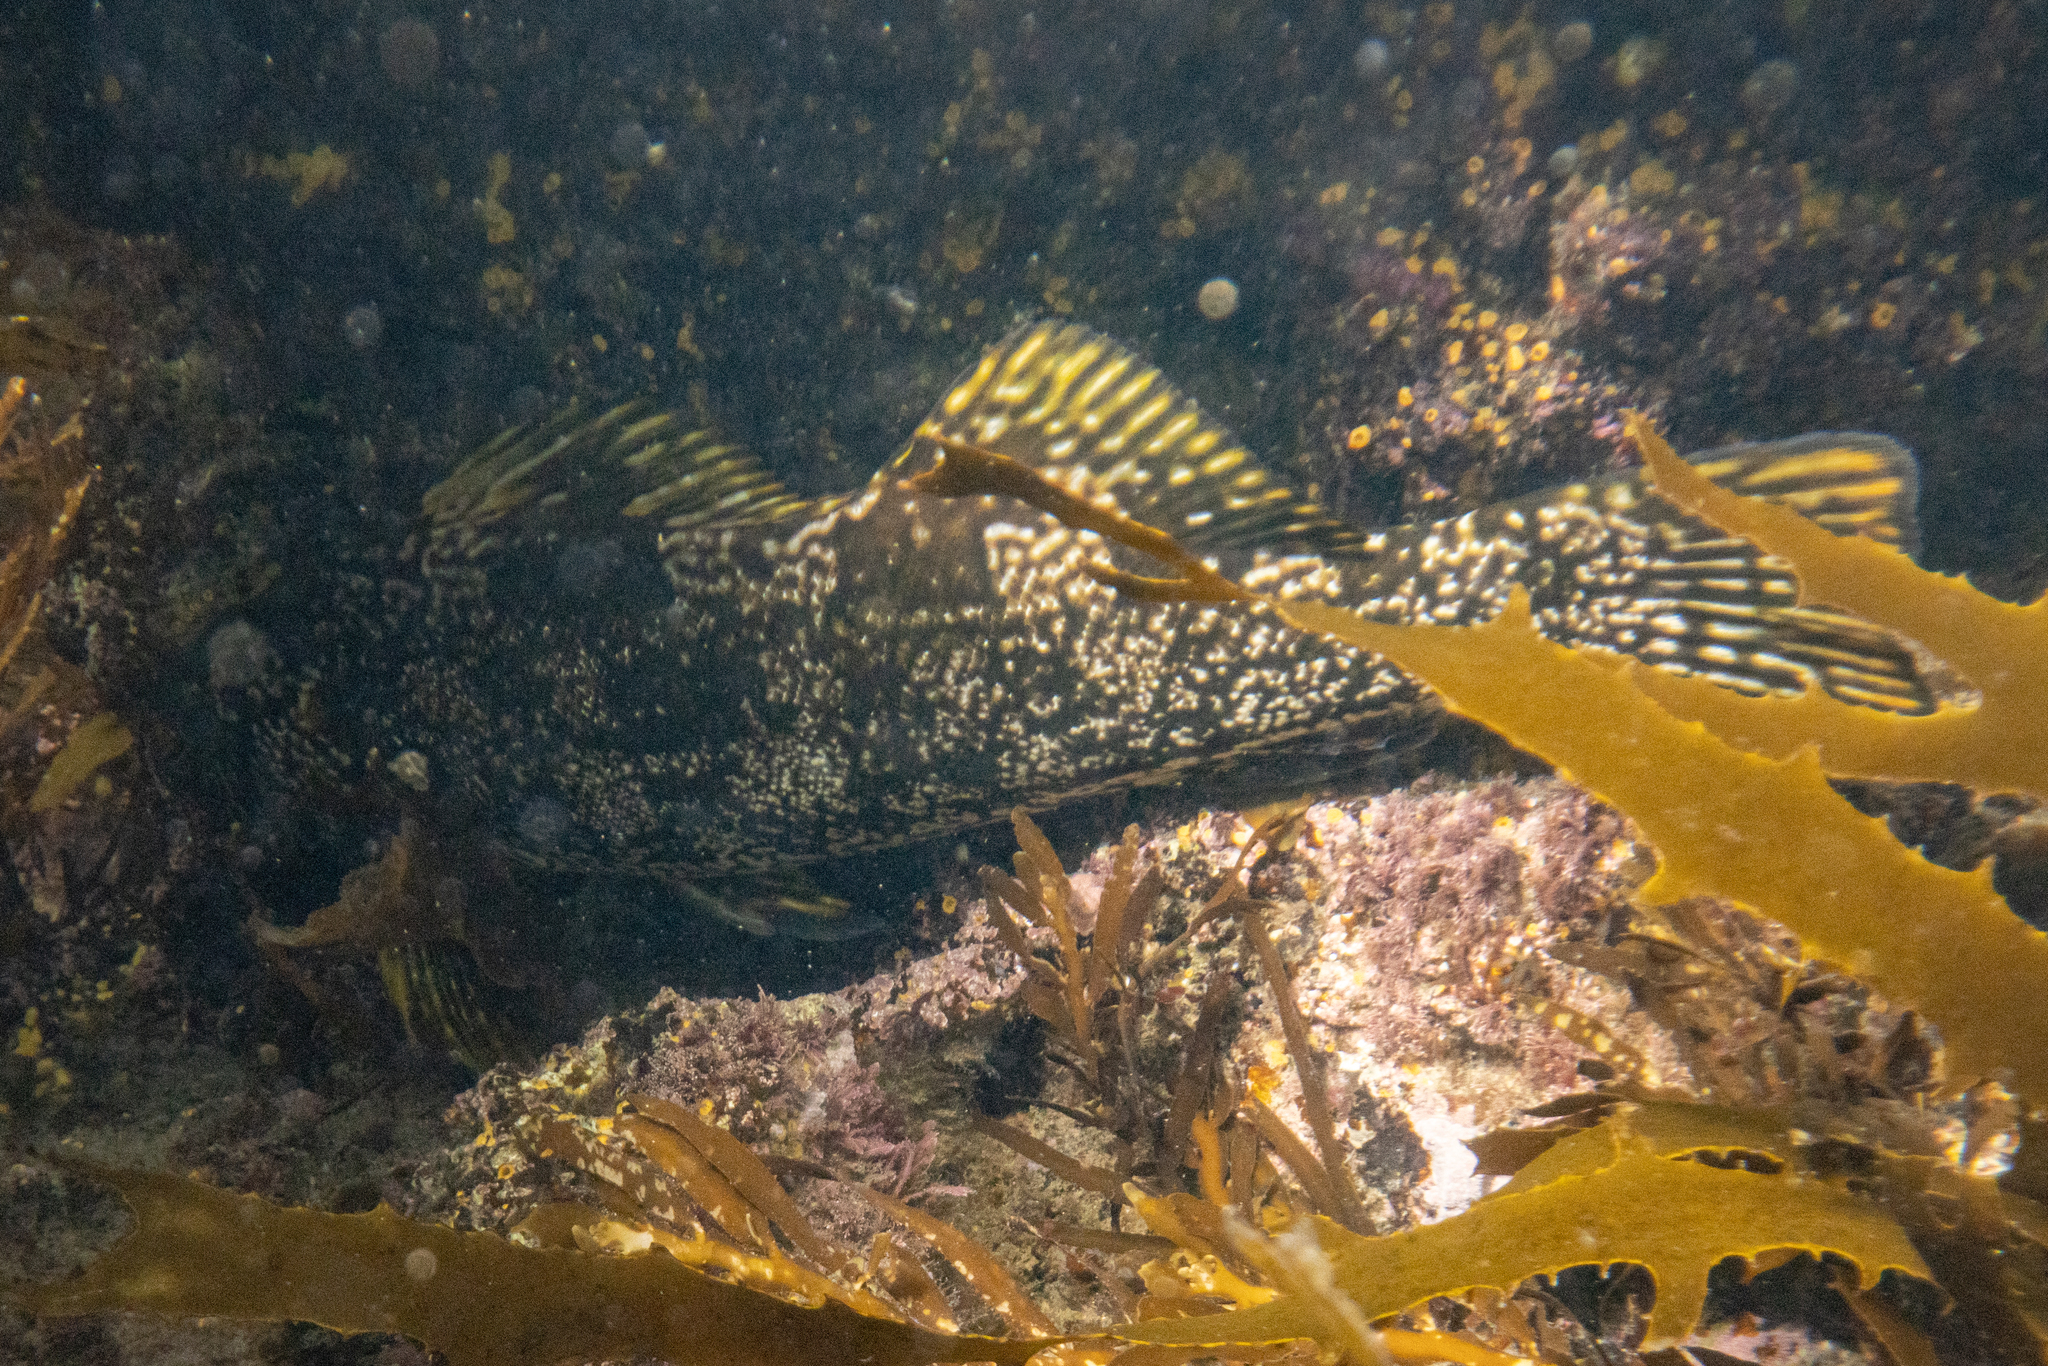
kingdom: Animalia
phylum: Chordata
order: Perciformes
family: Aplodactylidae
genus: Aplodactylus
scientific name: Aplodactylus arctidens
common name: Marblefish
